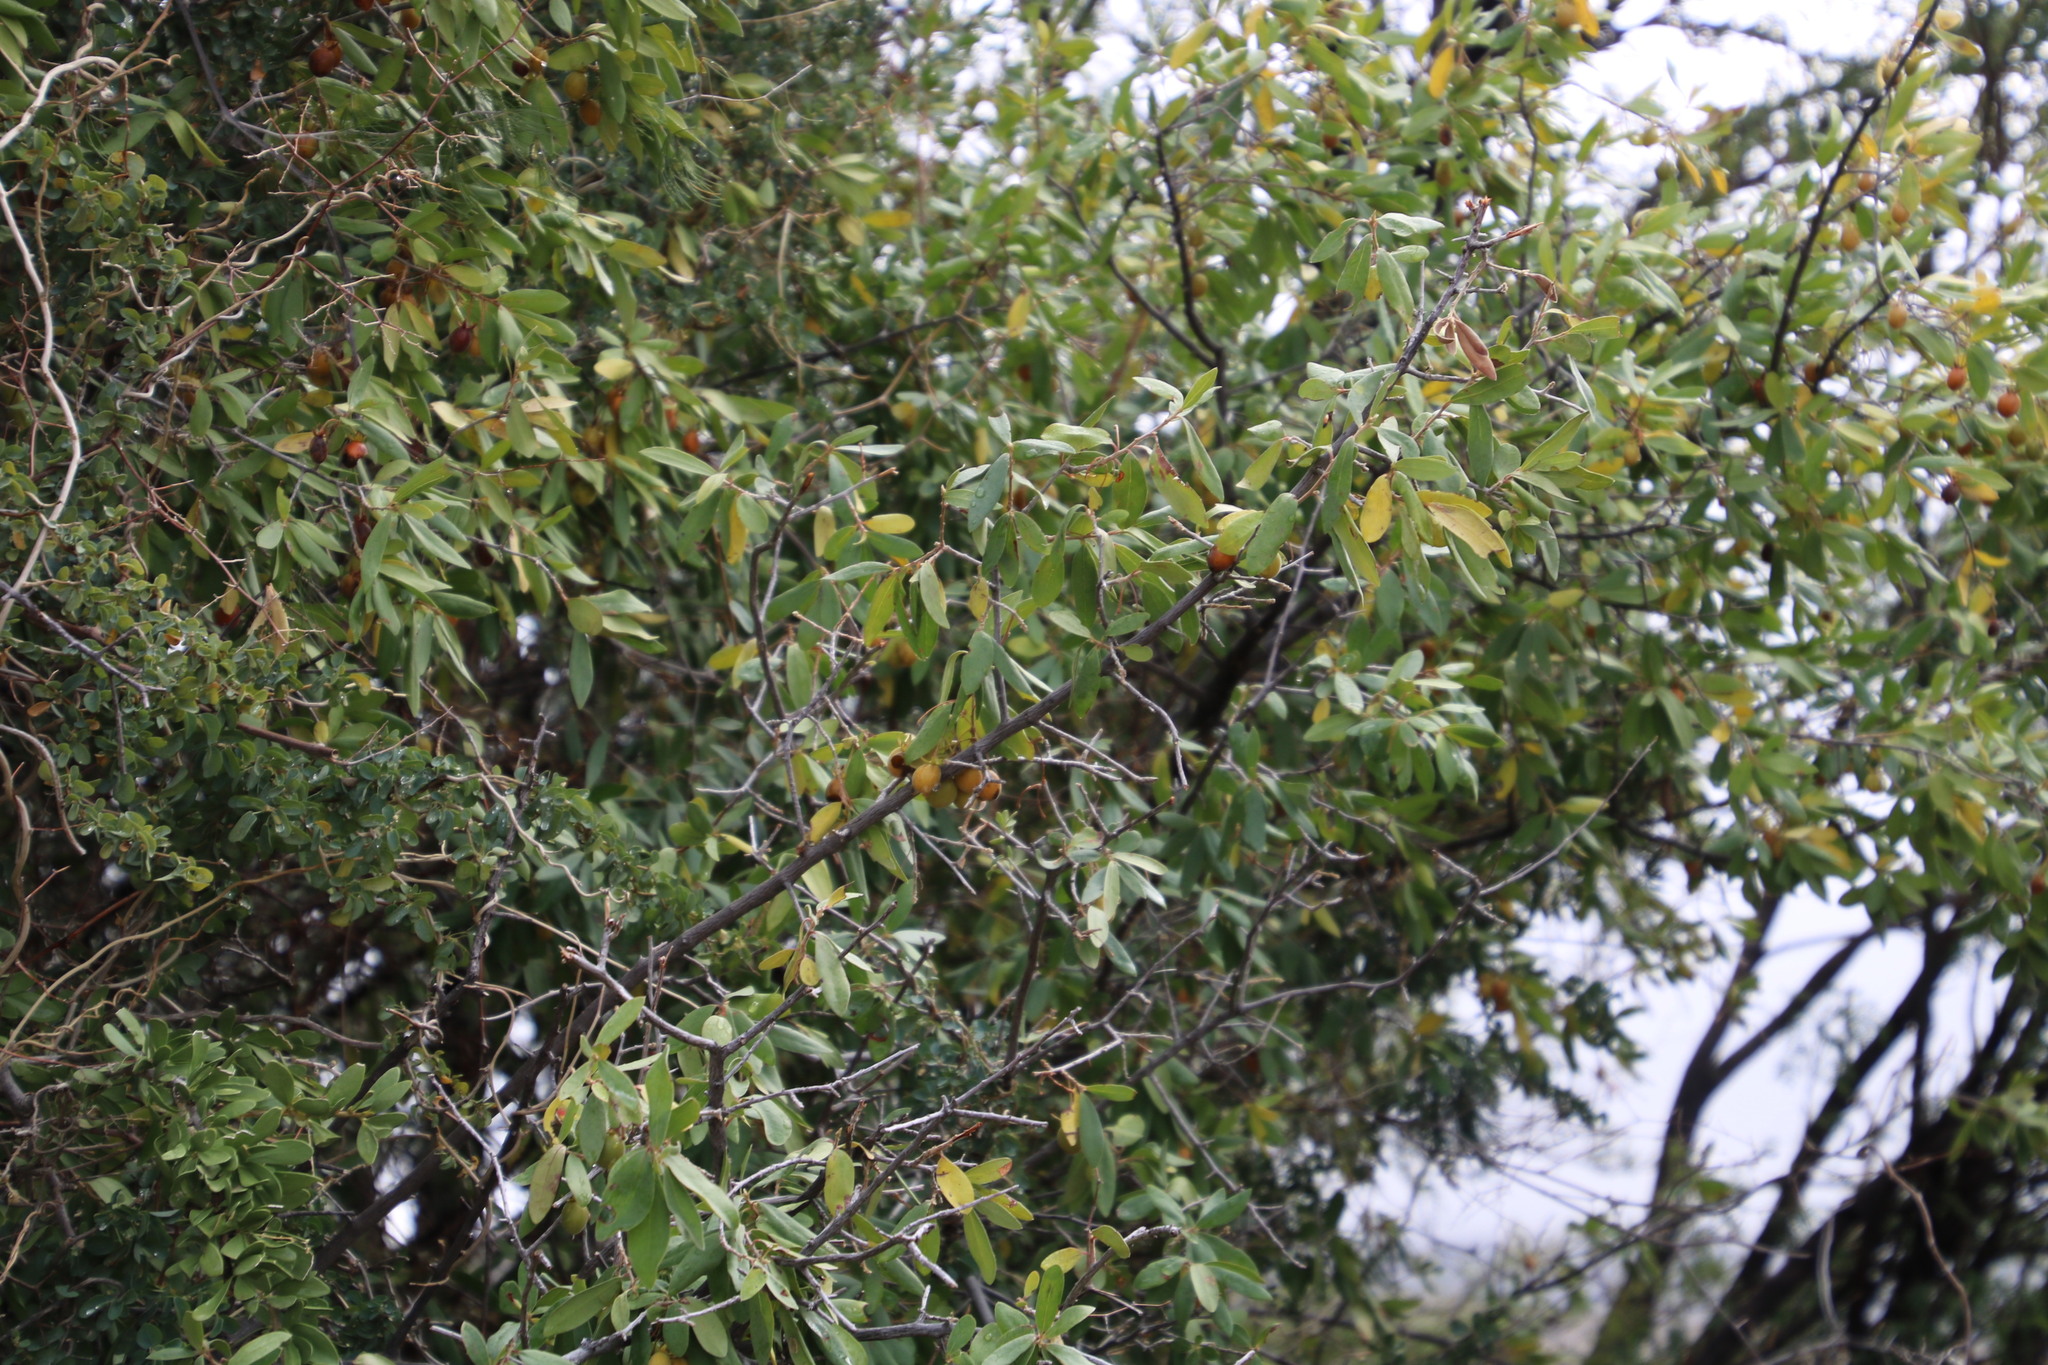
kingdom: Plantae
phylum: Tracheophyta
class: Magnoliopsida
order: Ericales
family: Ebenaceae
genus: Diospyros
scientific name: Diospyros lycioides
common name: Red star apple
